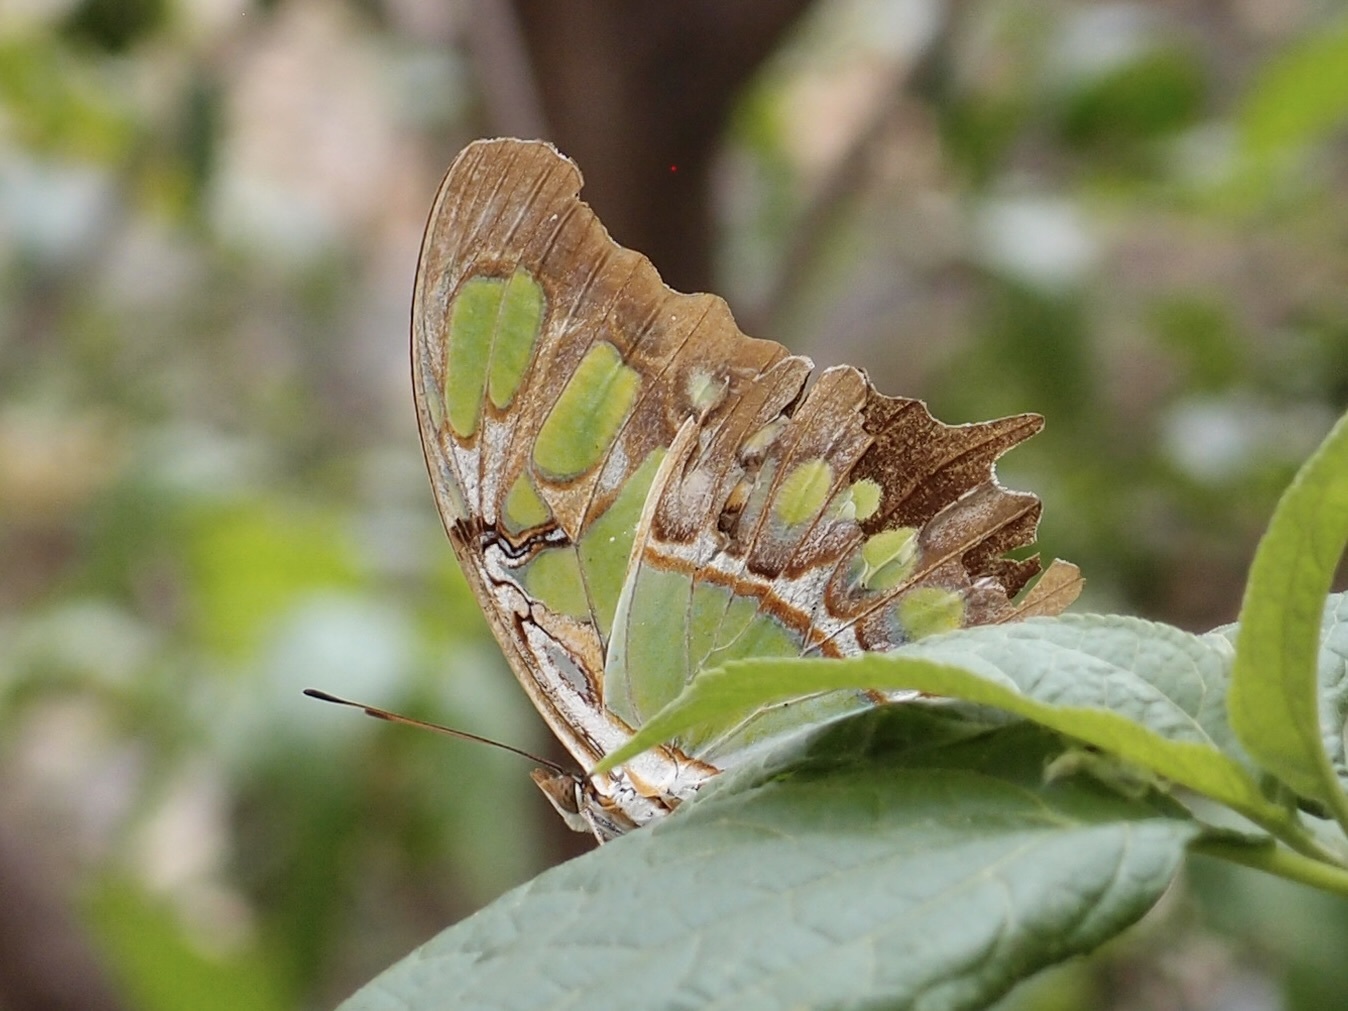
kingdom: Animalia
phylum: Arthropoda
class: Insecta
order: Lepidoptera
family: Nymphalidae
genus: Siproeta
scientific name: Siproeta stelenes
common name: Malachite
